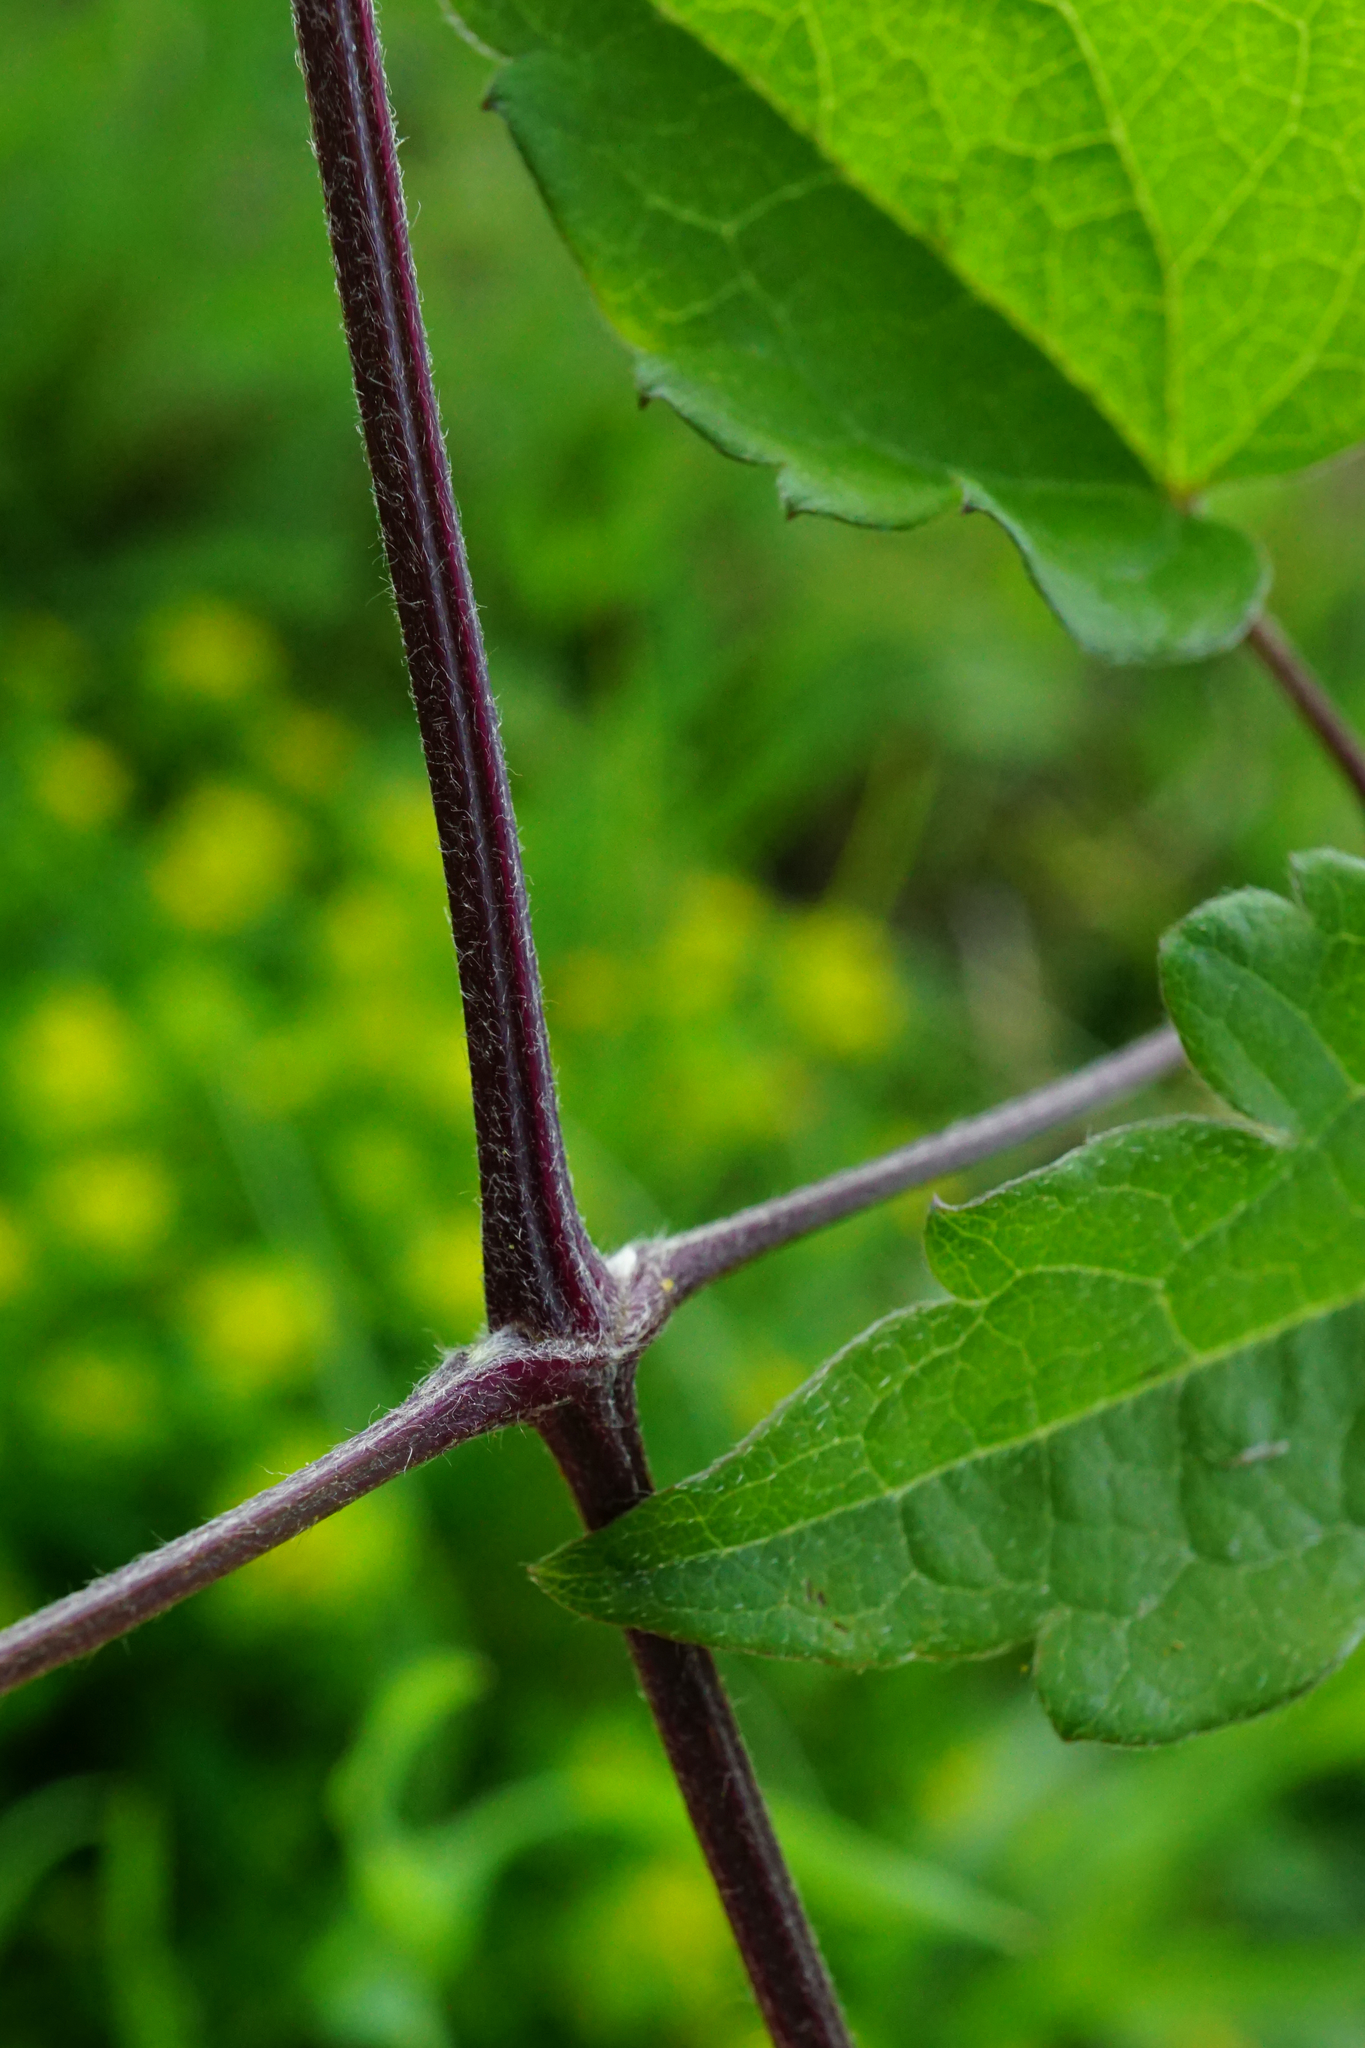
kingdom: Plantae
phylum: Tracheophyta
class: Magnoliopsida
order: Ranunculales
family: Ranunculaceae
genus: Clematis
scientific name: Clematis vitalba
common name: Evergreen clematis
